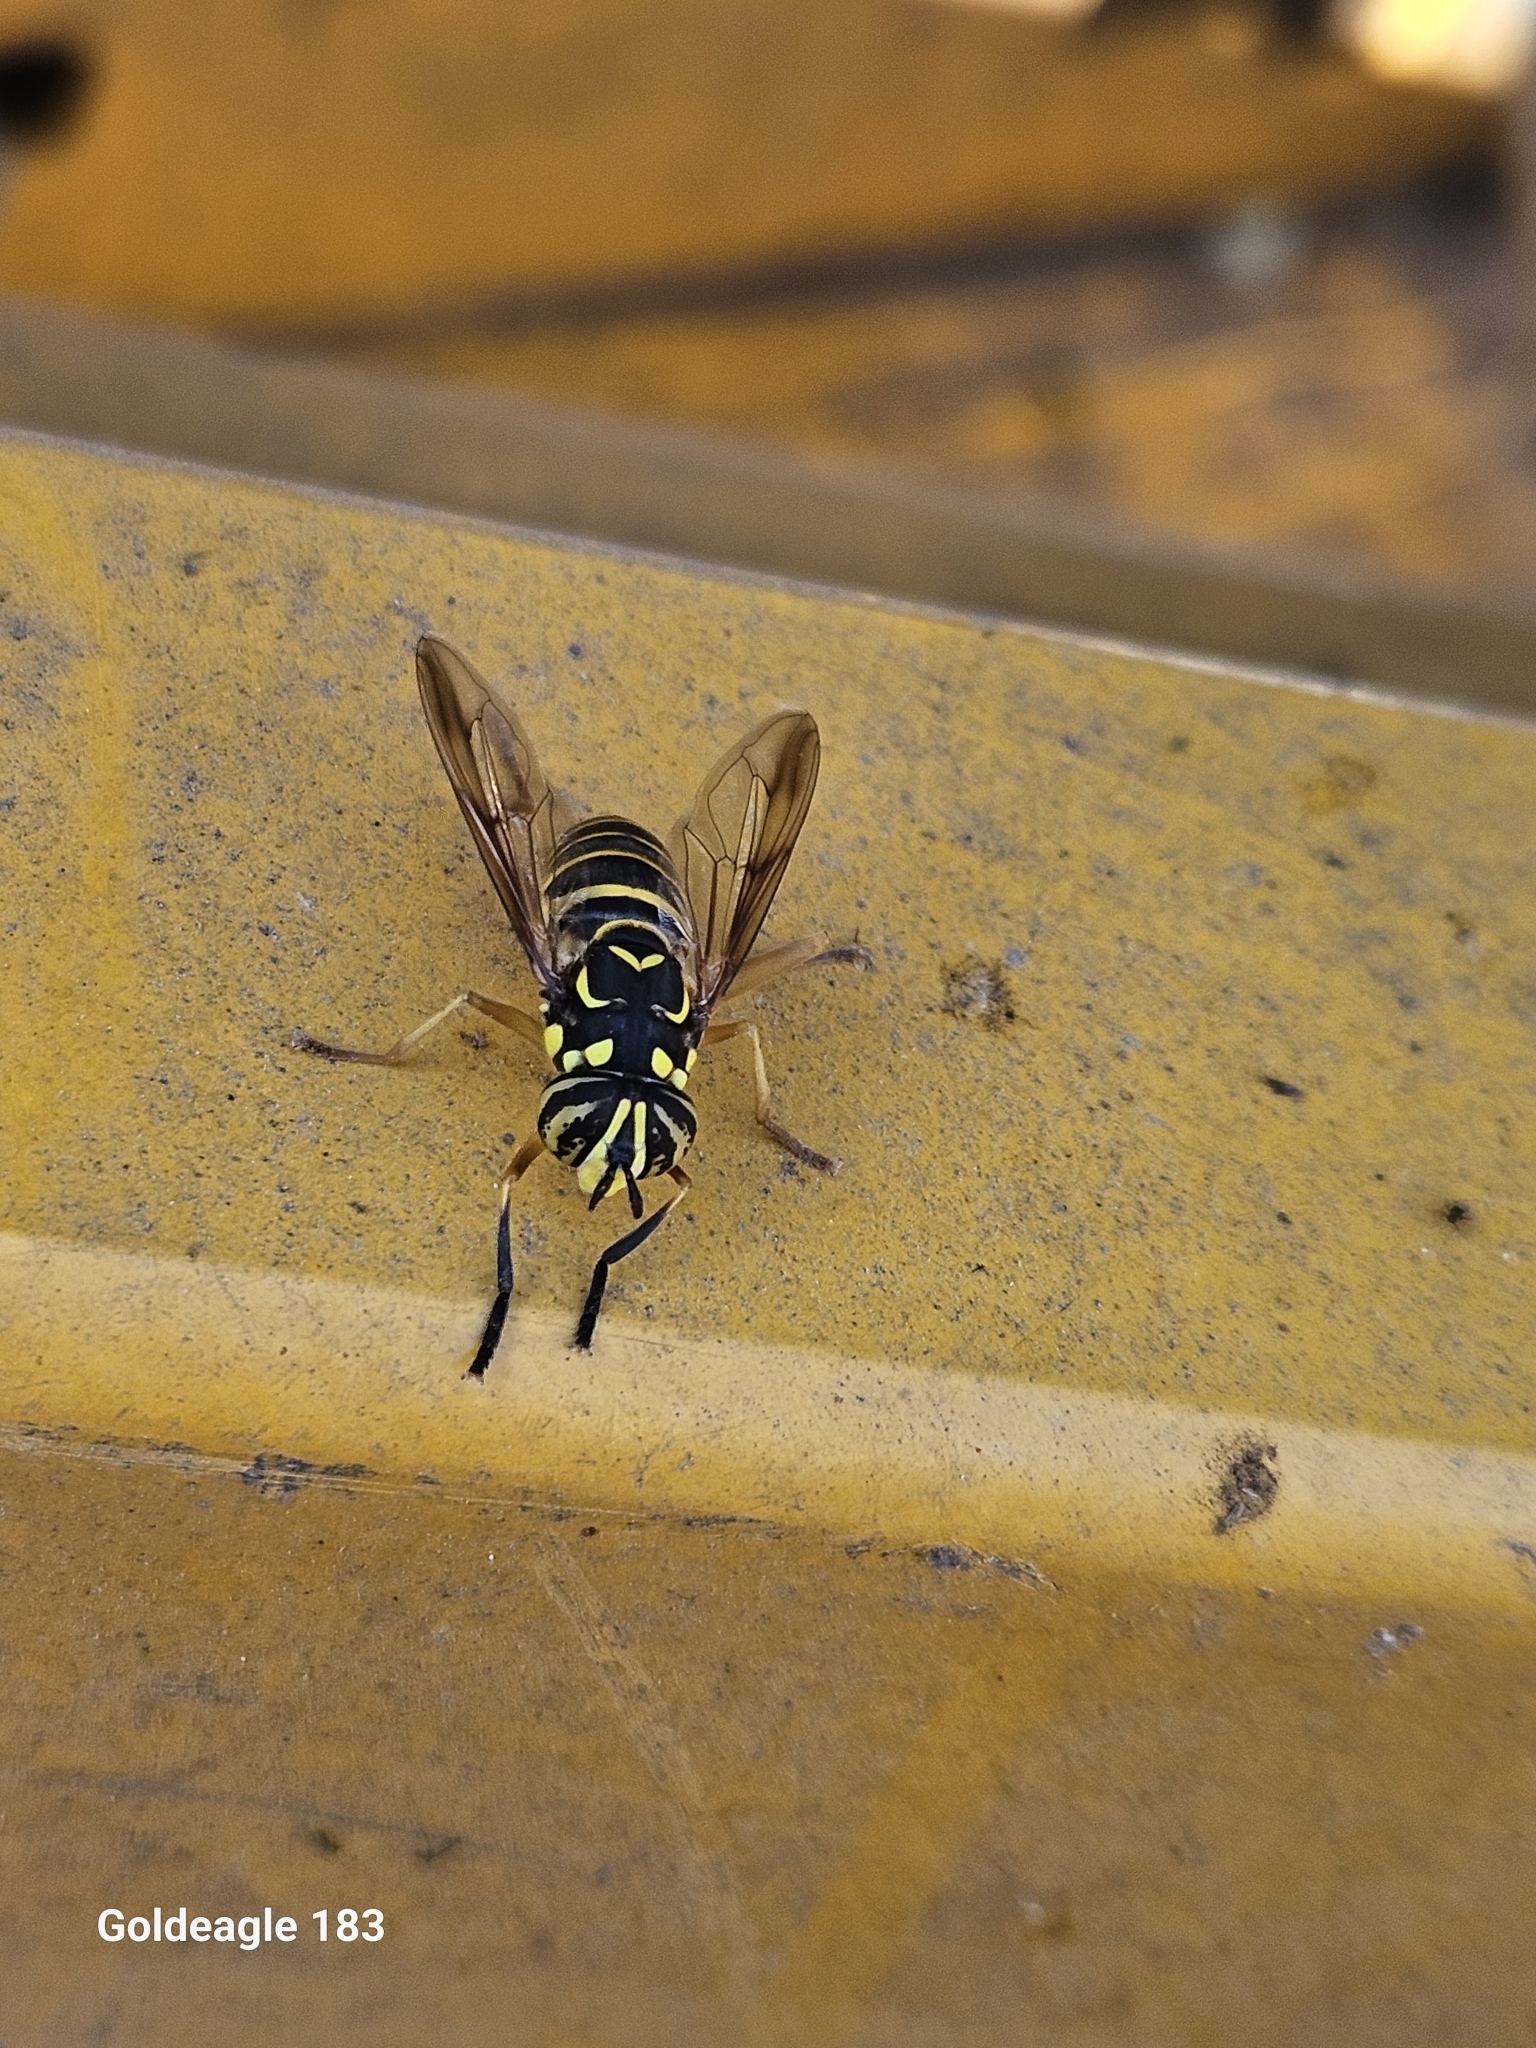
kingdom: Animalia
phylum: Arthropoda
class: Insecta
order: Diptera
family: Syrphidae
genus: Spilomyia
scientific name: Spilomyia longicornis
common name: Eastern hornet fly
